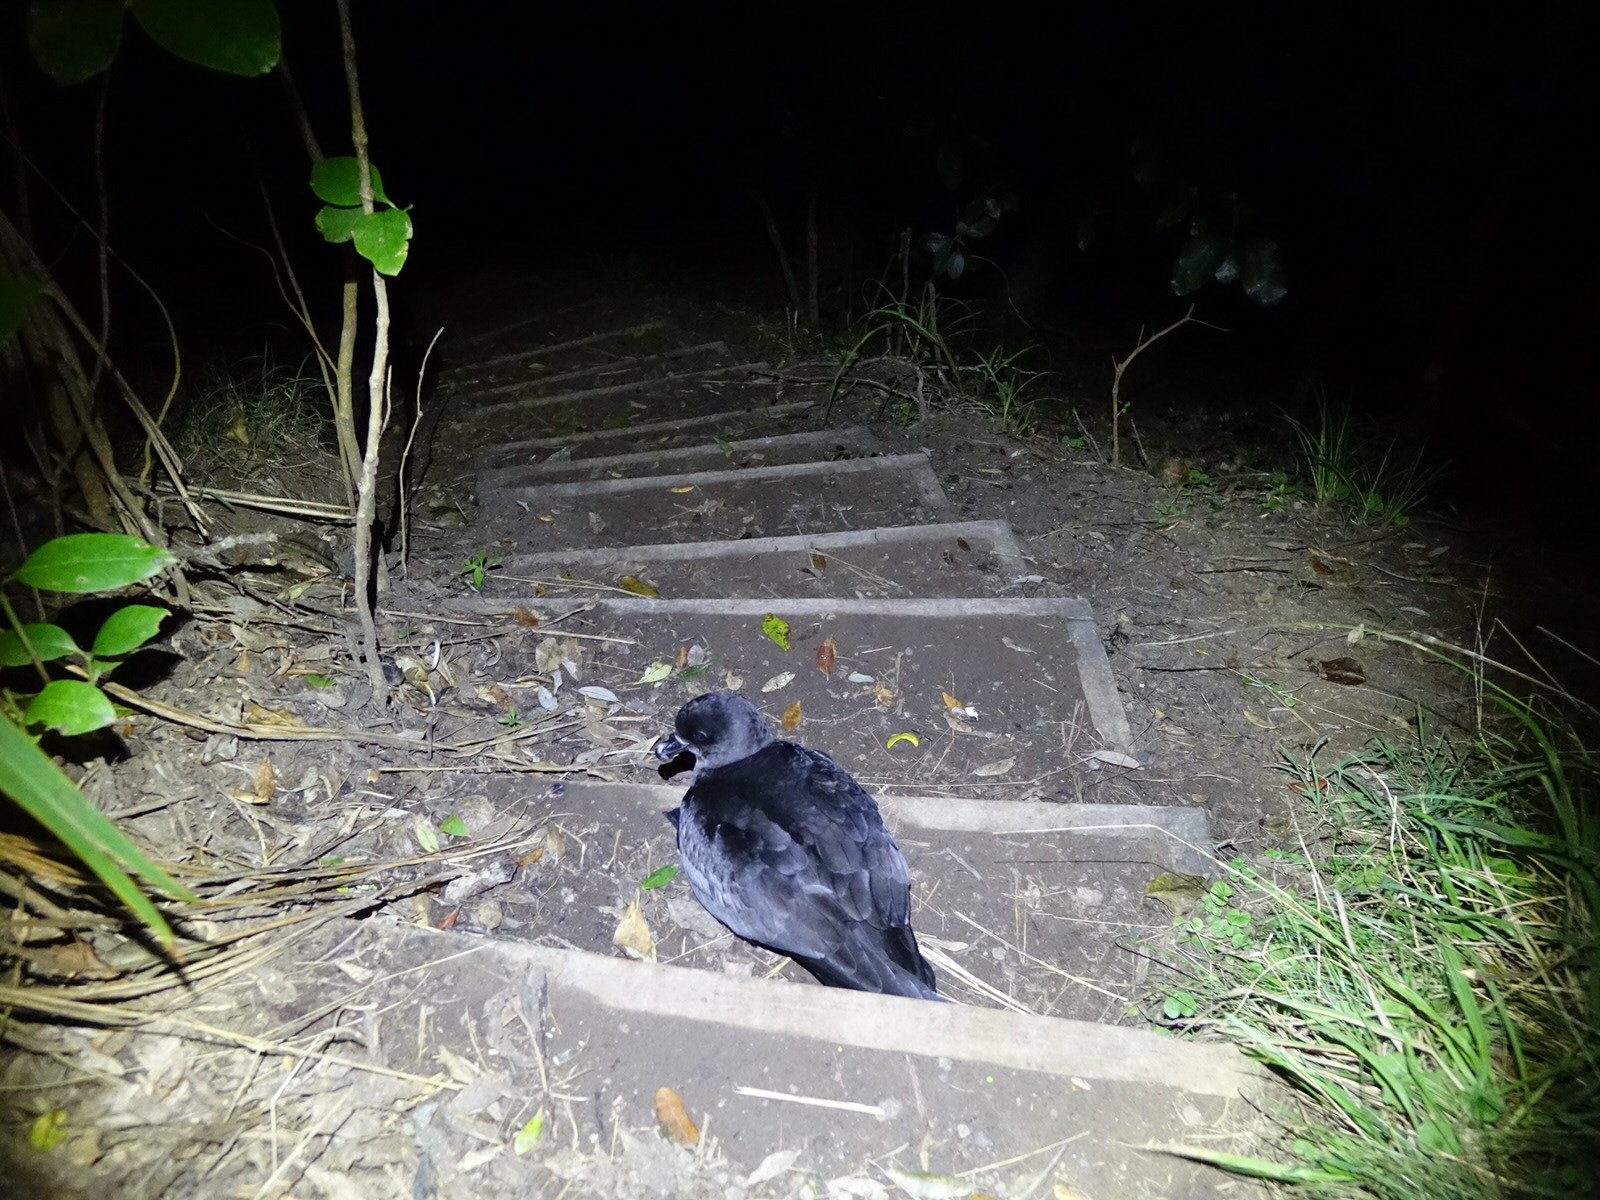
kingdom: Animalia
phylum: Chordata
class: Aves
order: Procellariiformes
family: Procellariidae
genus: Pterodroma
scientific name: Pterodroma macroptera
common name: Great-winged petrel
